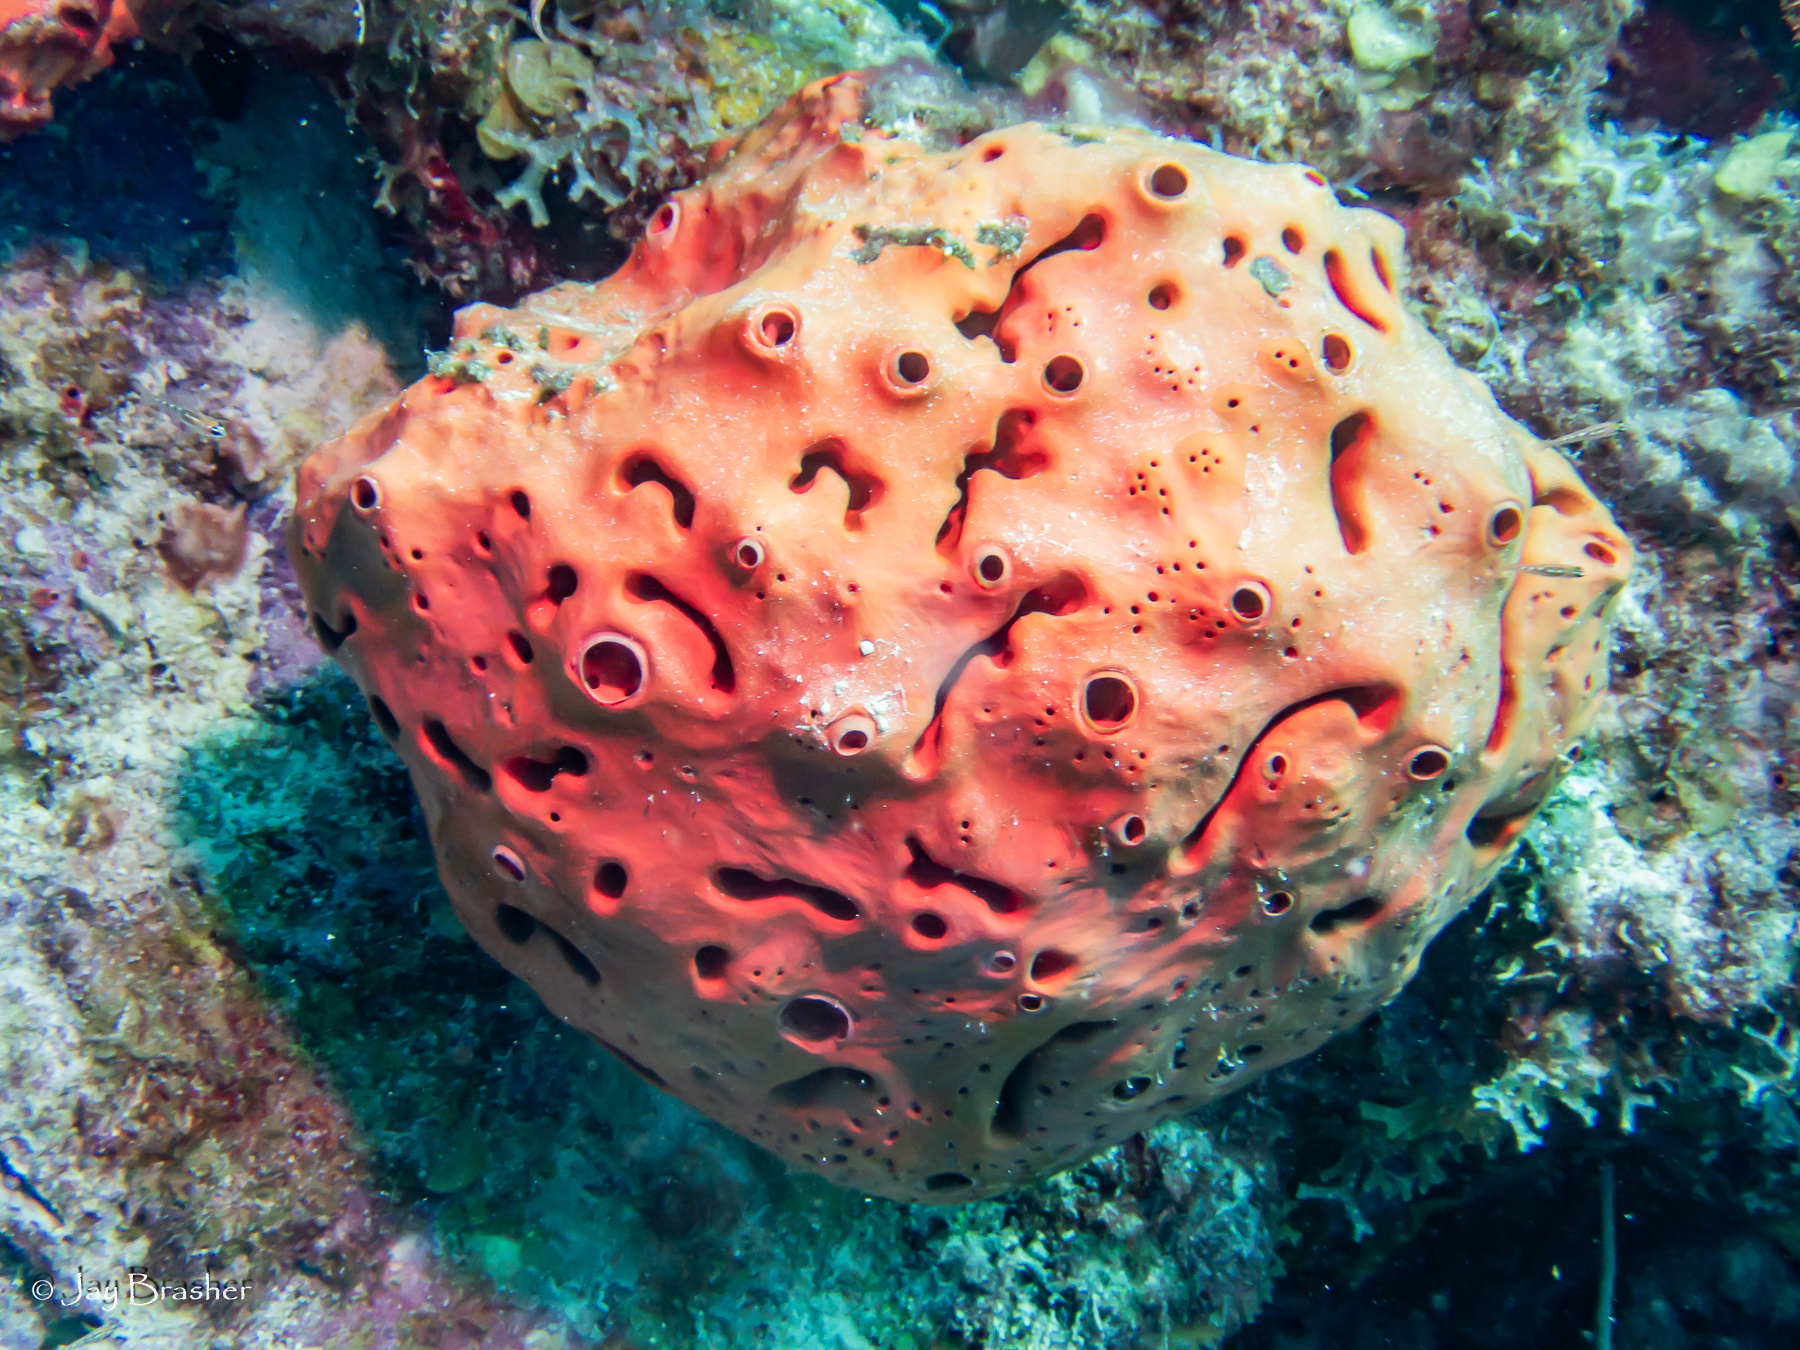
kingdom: Animalia
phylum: Porifera
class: Demospongiae
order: Agelasida
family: Agelasidae
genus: Agelas
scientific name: Agelas sventres
